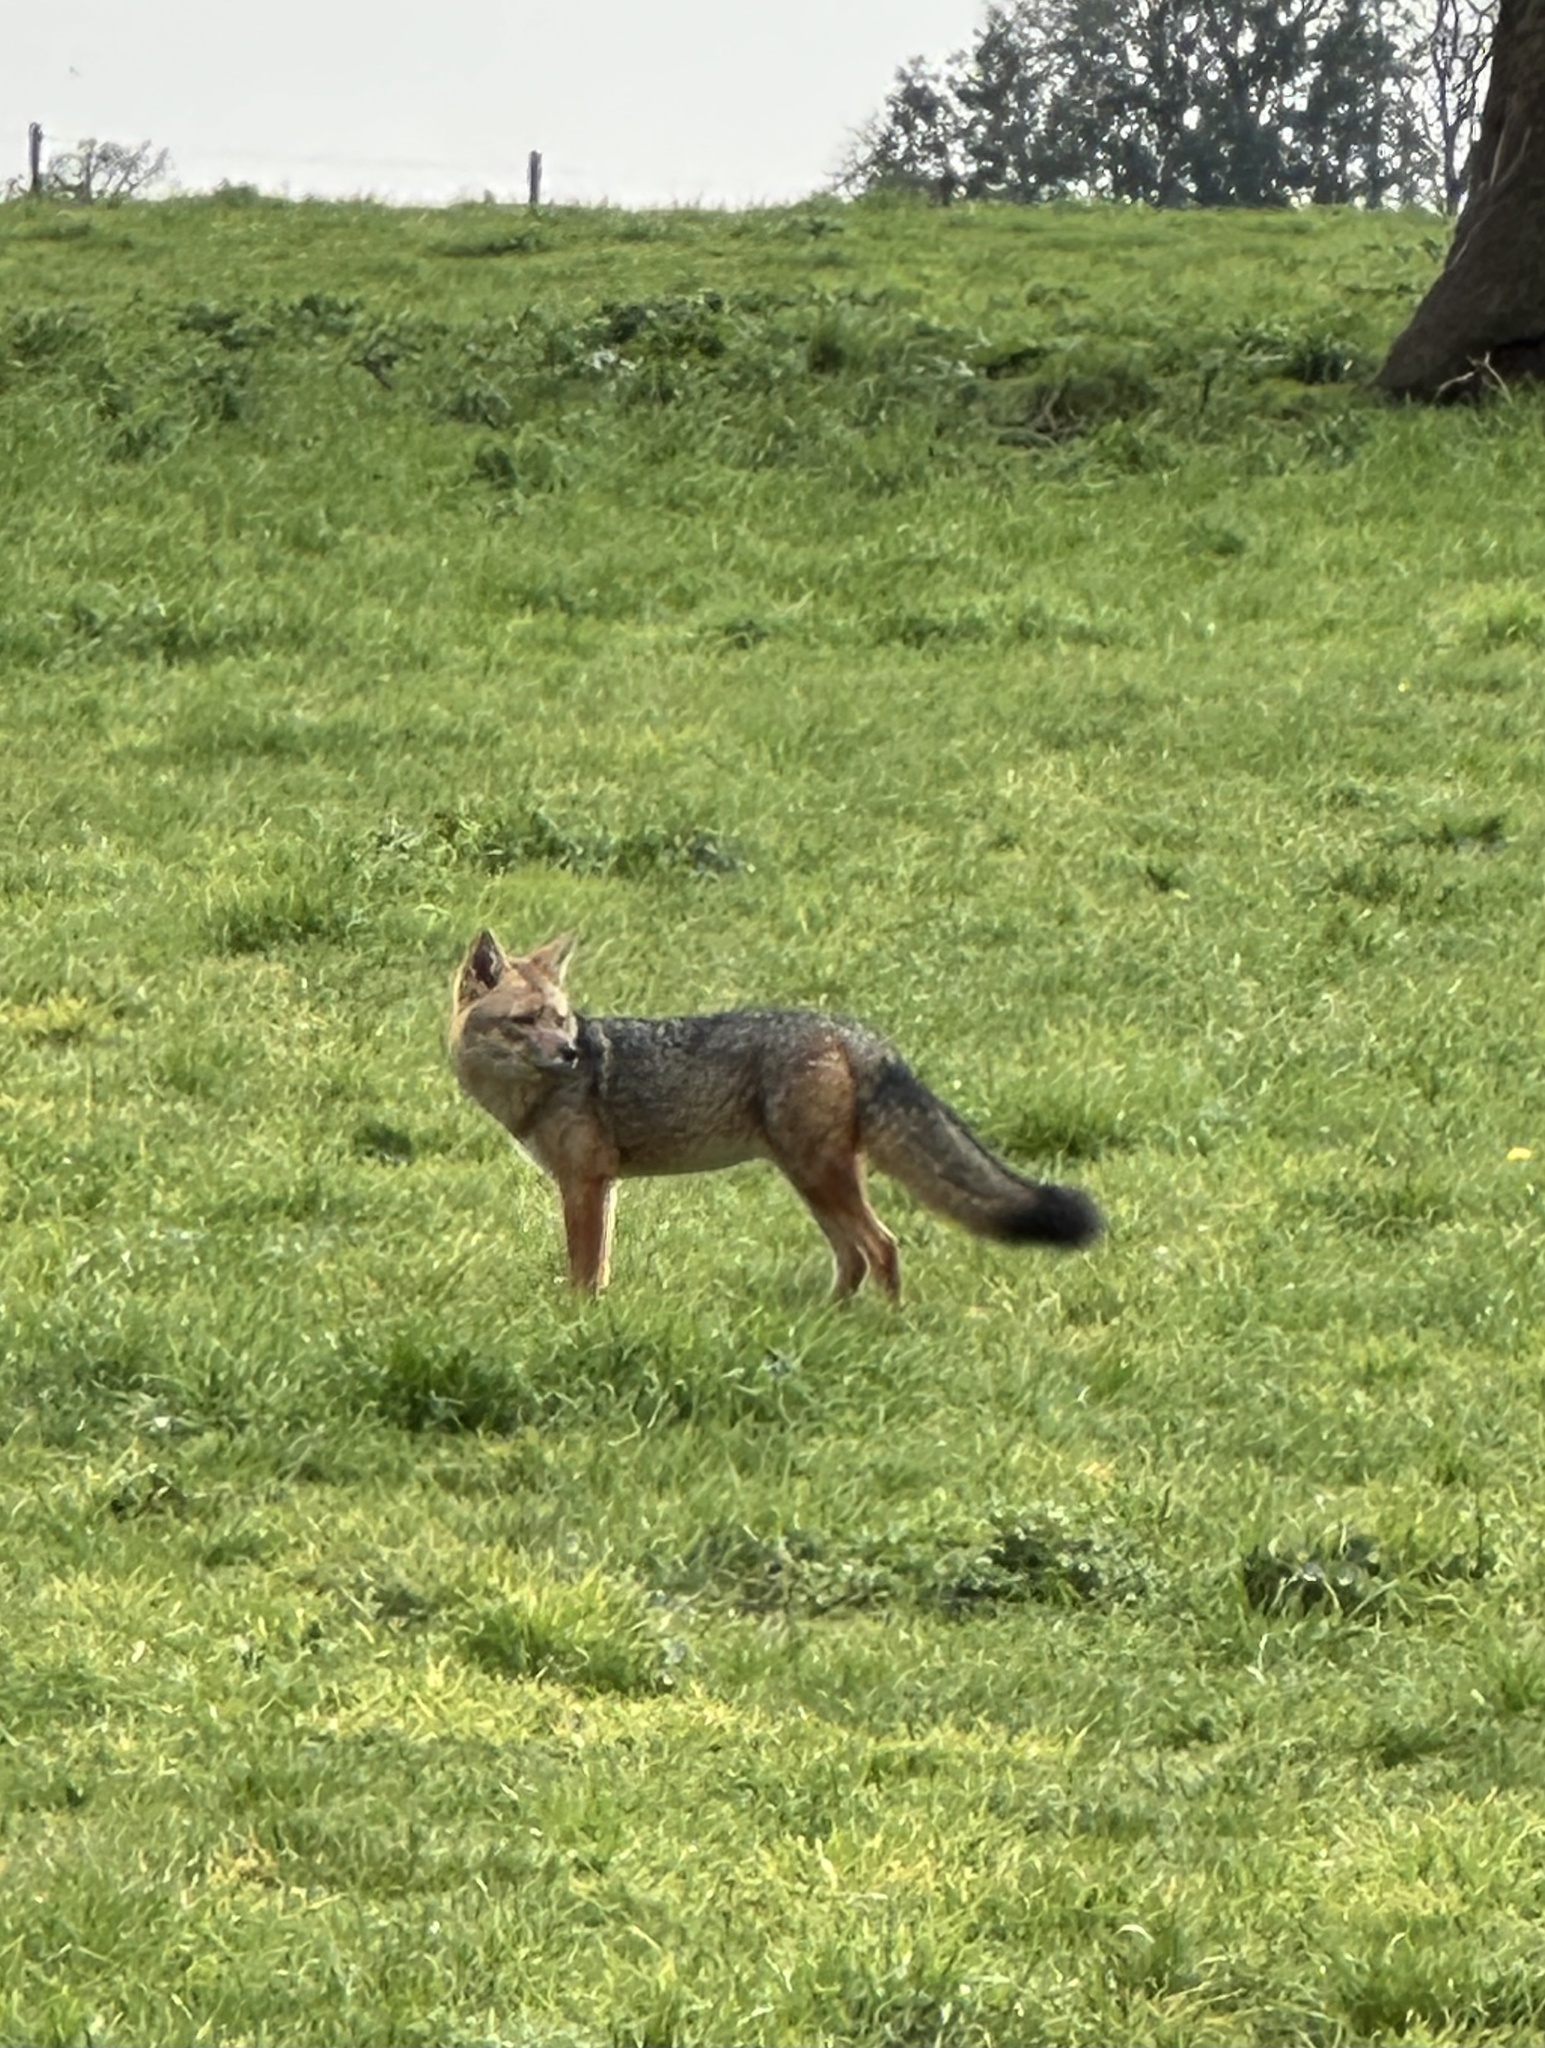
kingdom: Animalia
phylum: Chordata
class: Mammalia
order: Carnivora
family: Canidae
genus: Lycalopex
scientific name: Lycalopex culpaeus
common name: Culpeo
